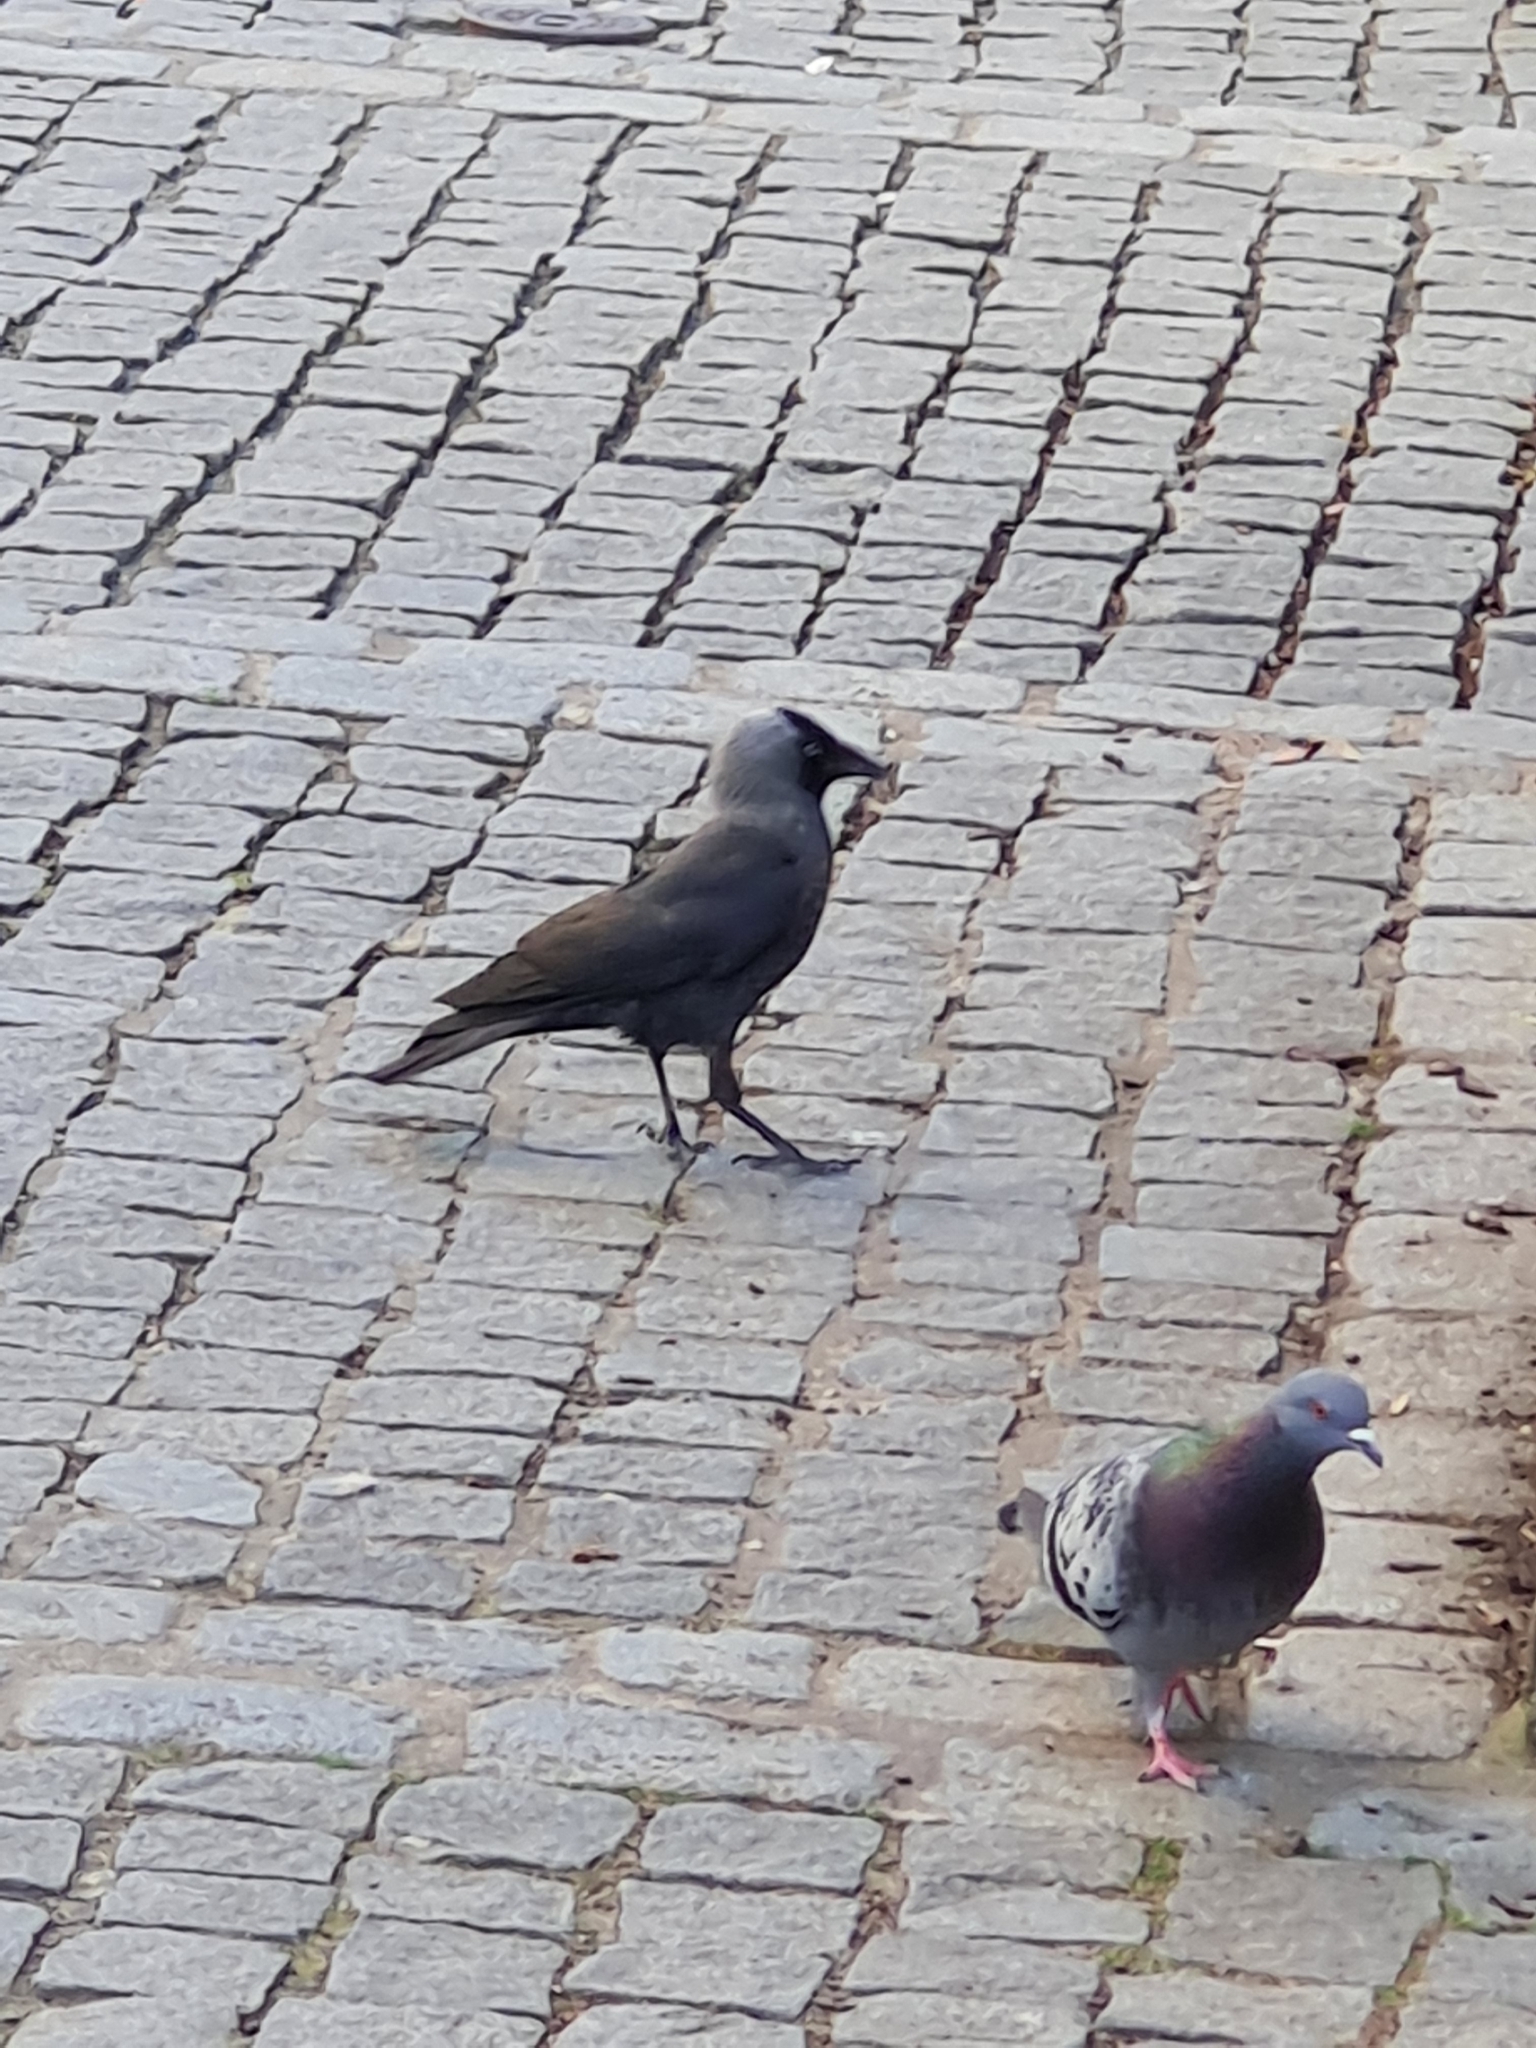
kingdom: Animalia
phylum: Chordata
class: Aves
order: Passeriformes
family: Corvidae
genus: Coloeus
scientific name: Coloeus monedula
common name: Western jackdaw
